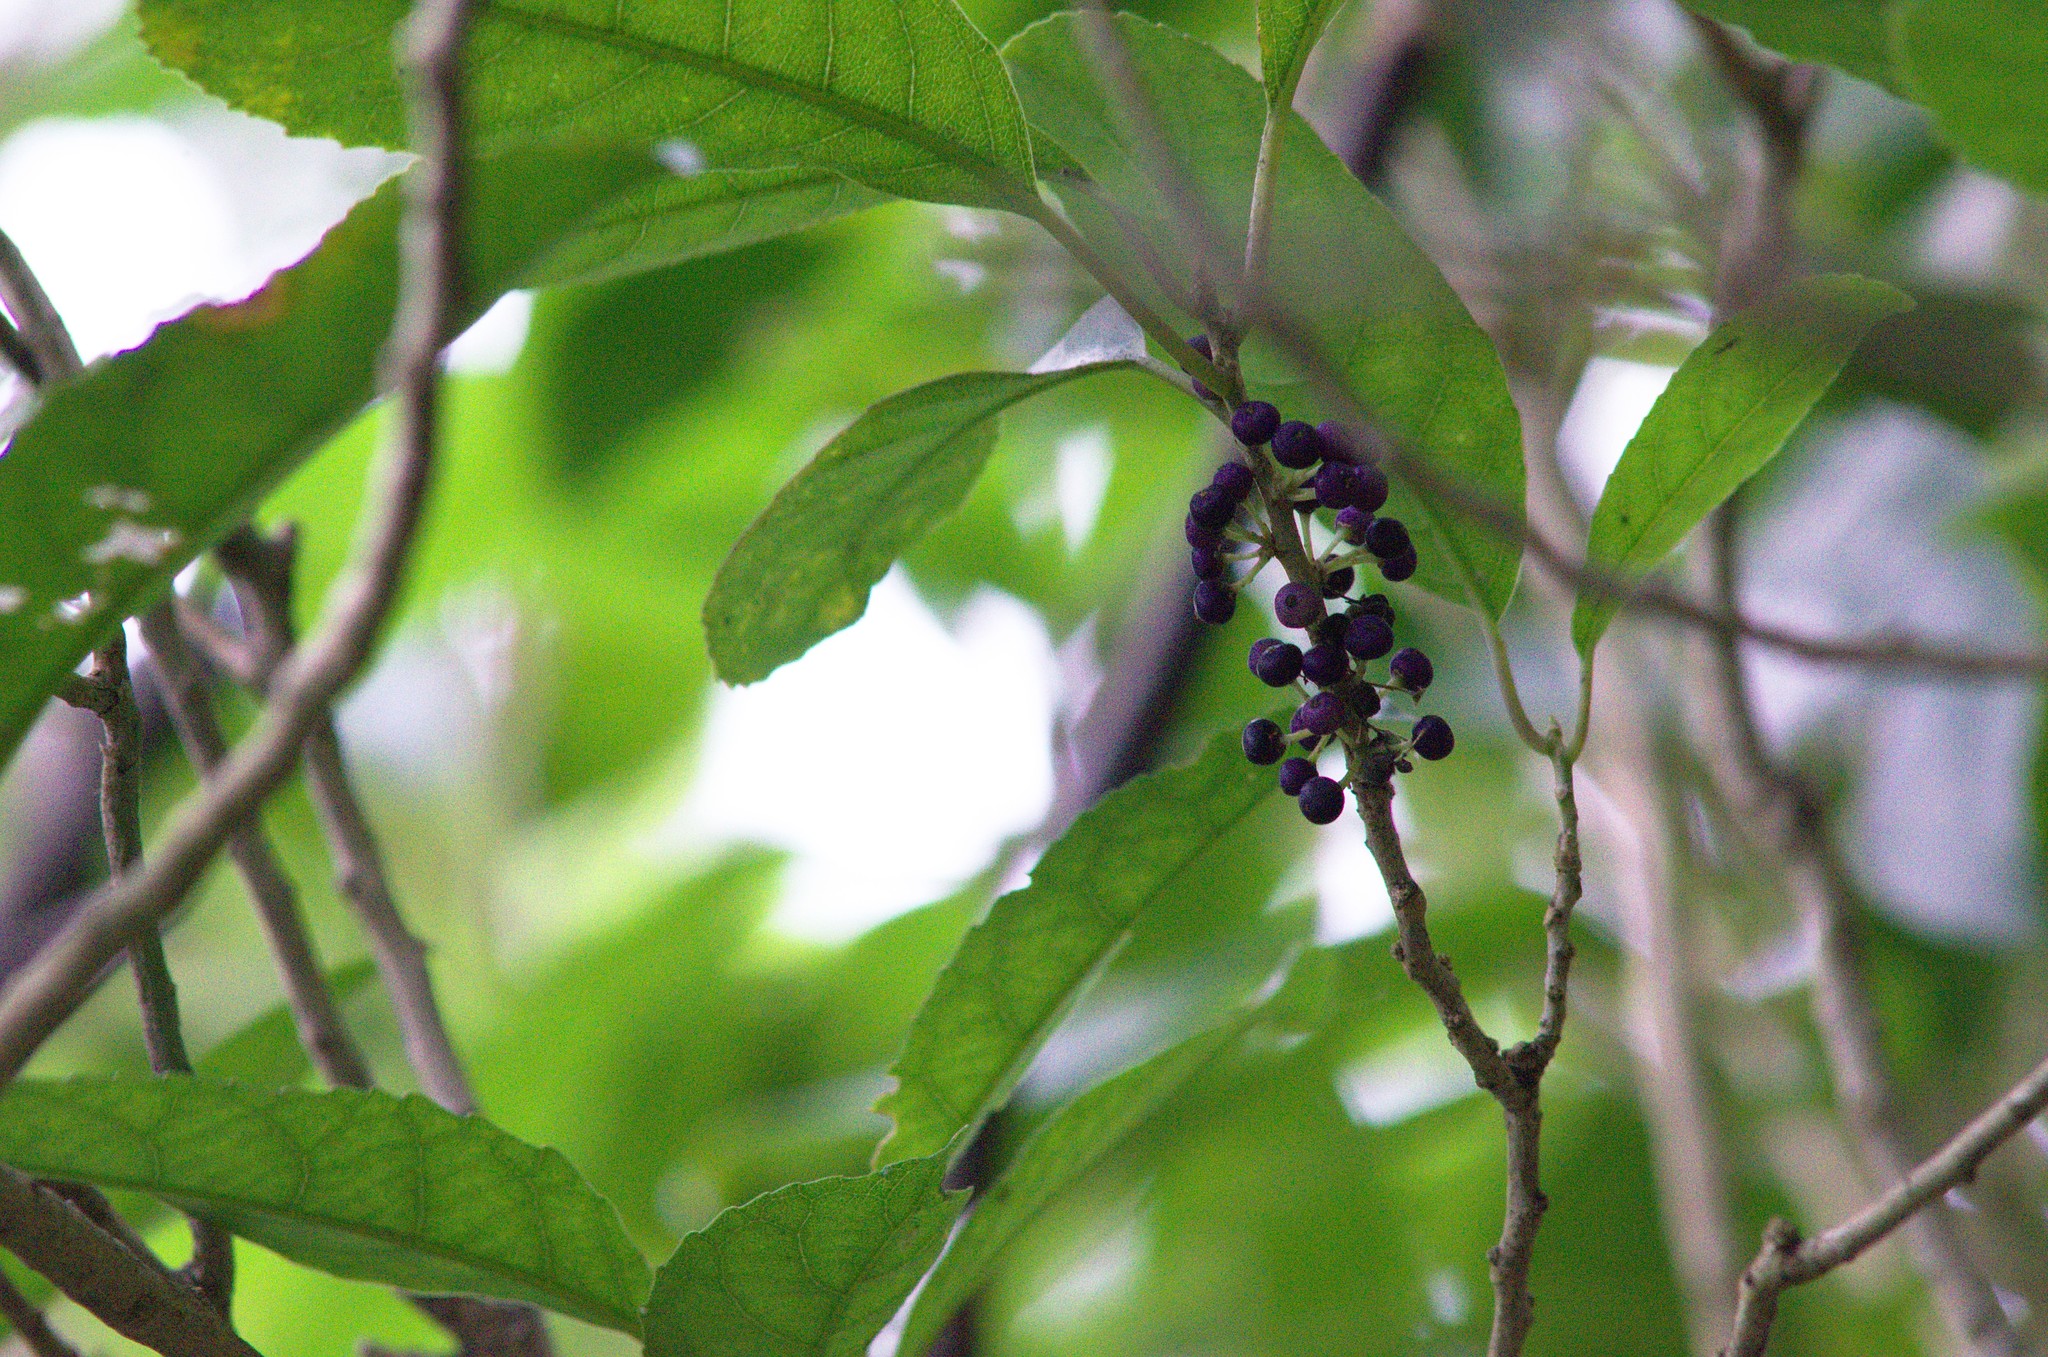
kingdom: Plantae
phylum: Tracheophyta
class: Magnoliopsida
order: Malpighiales
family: Violaceae
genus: Melicytus
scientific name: Melicytus ramiflorus
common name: Mahoe
